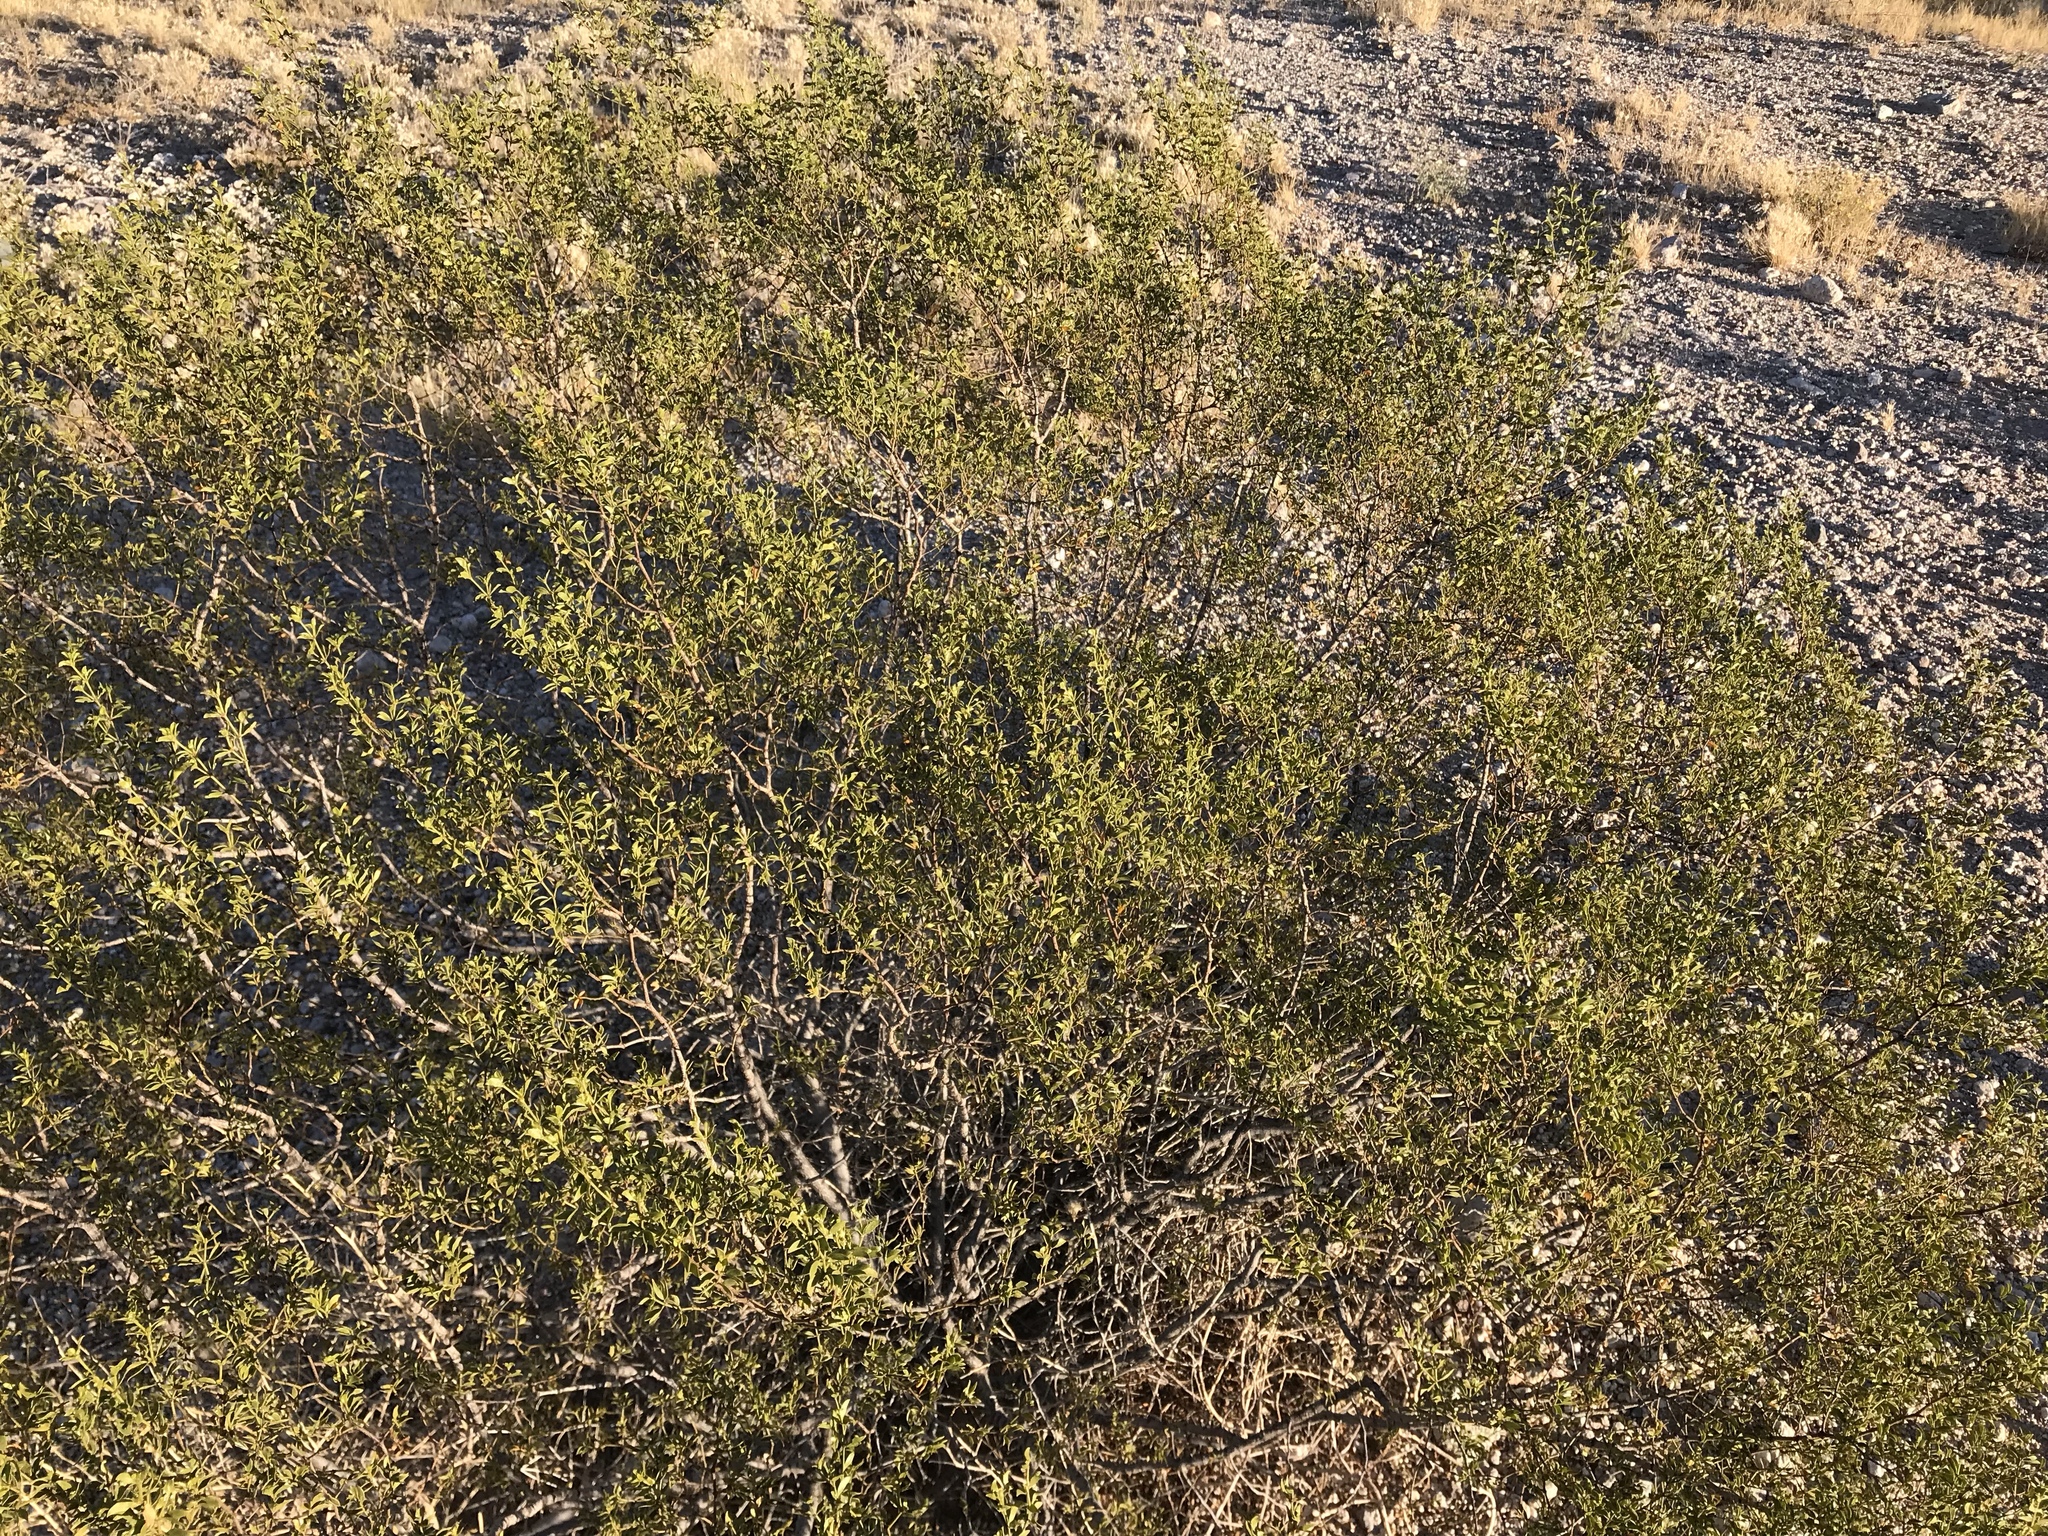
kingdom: Plantae
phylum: Tracheophyta
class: Magnoliopsida
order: Zygophyllales
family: Zygophyllaceae
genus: Larrea
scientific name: Larrea tridentata
